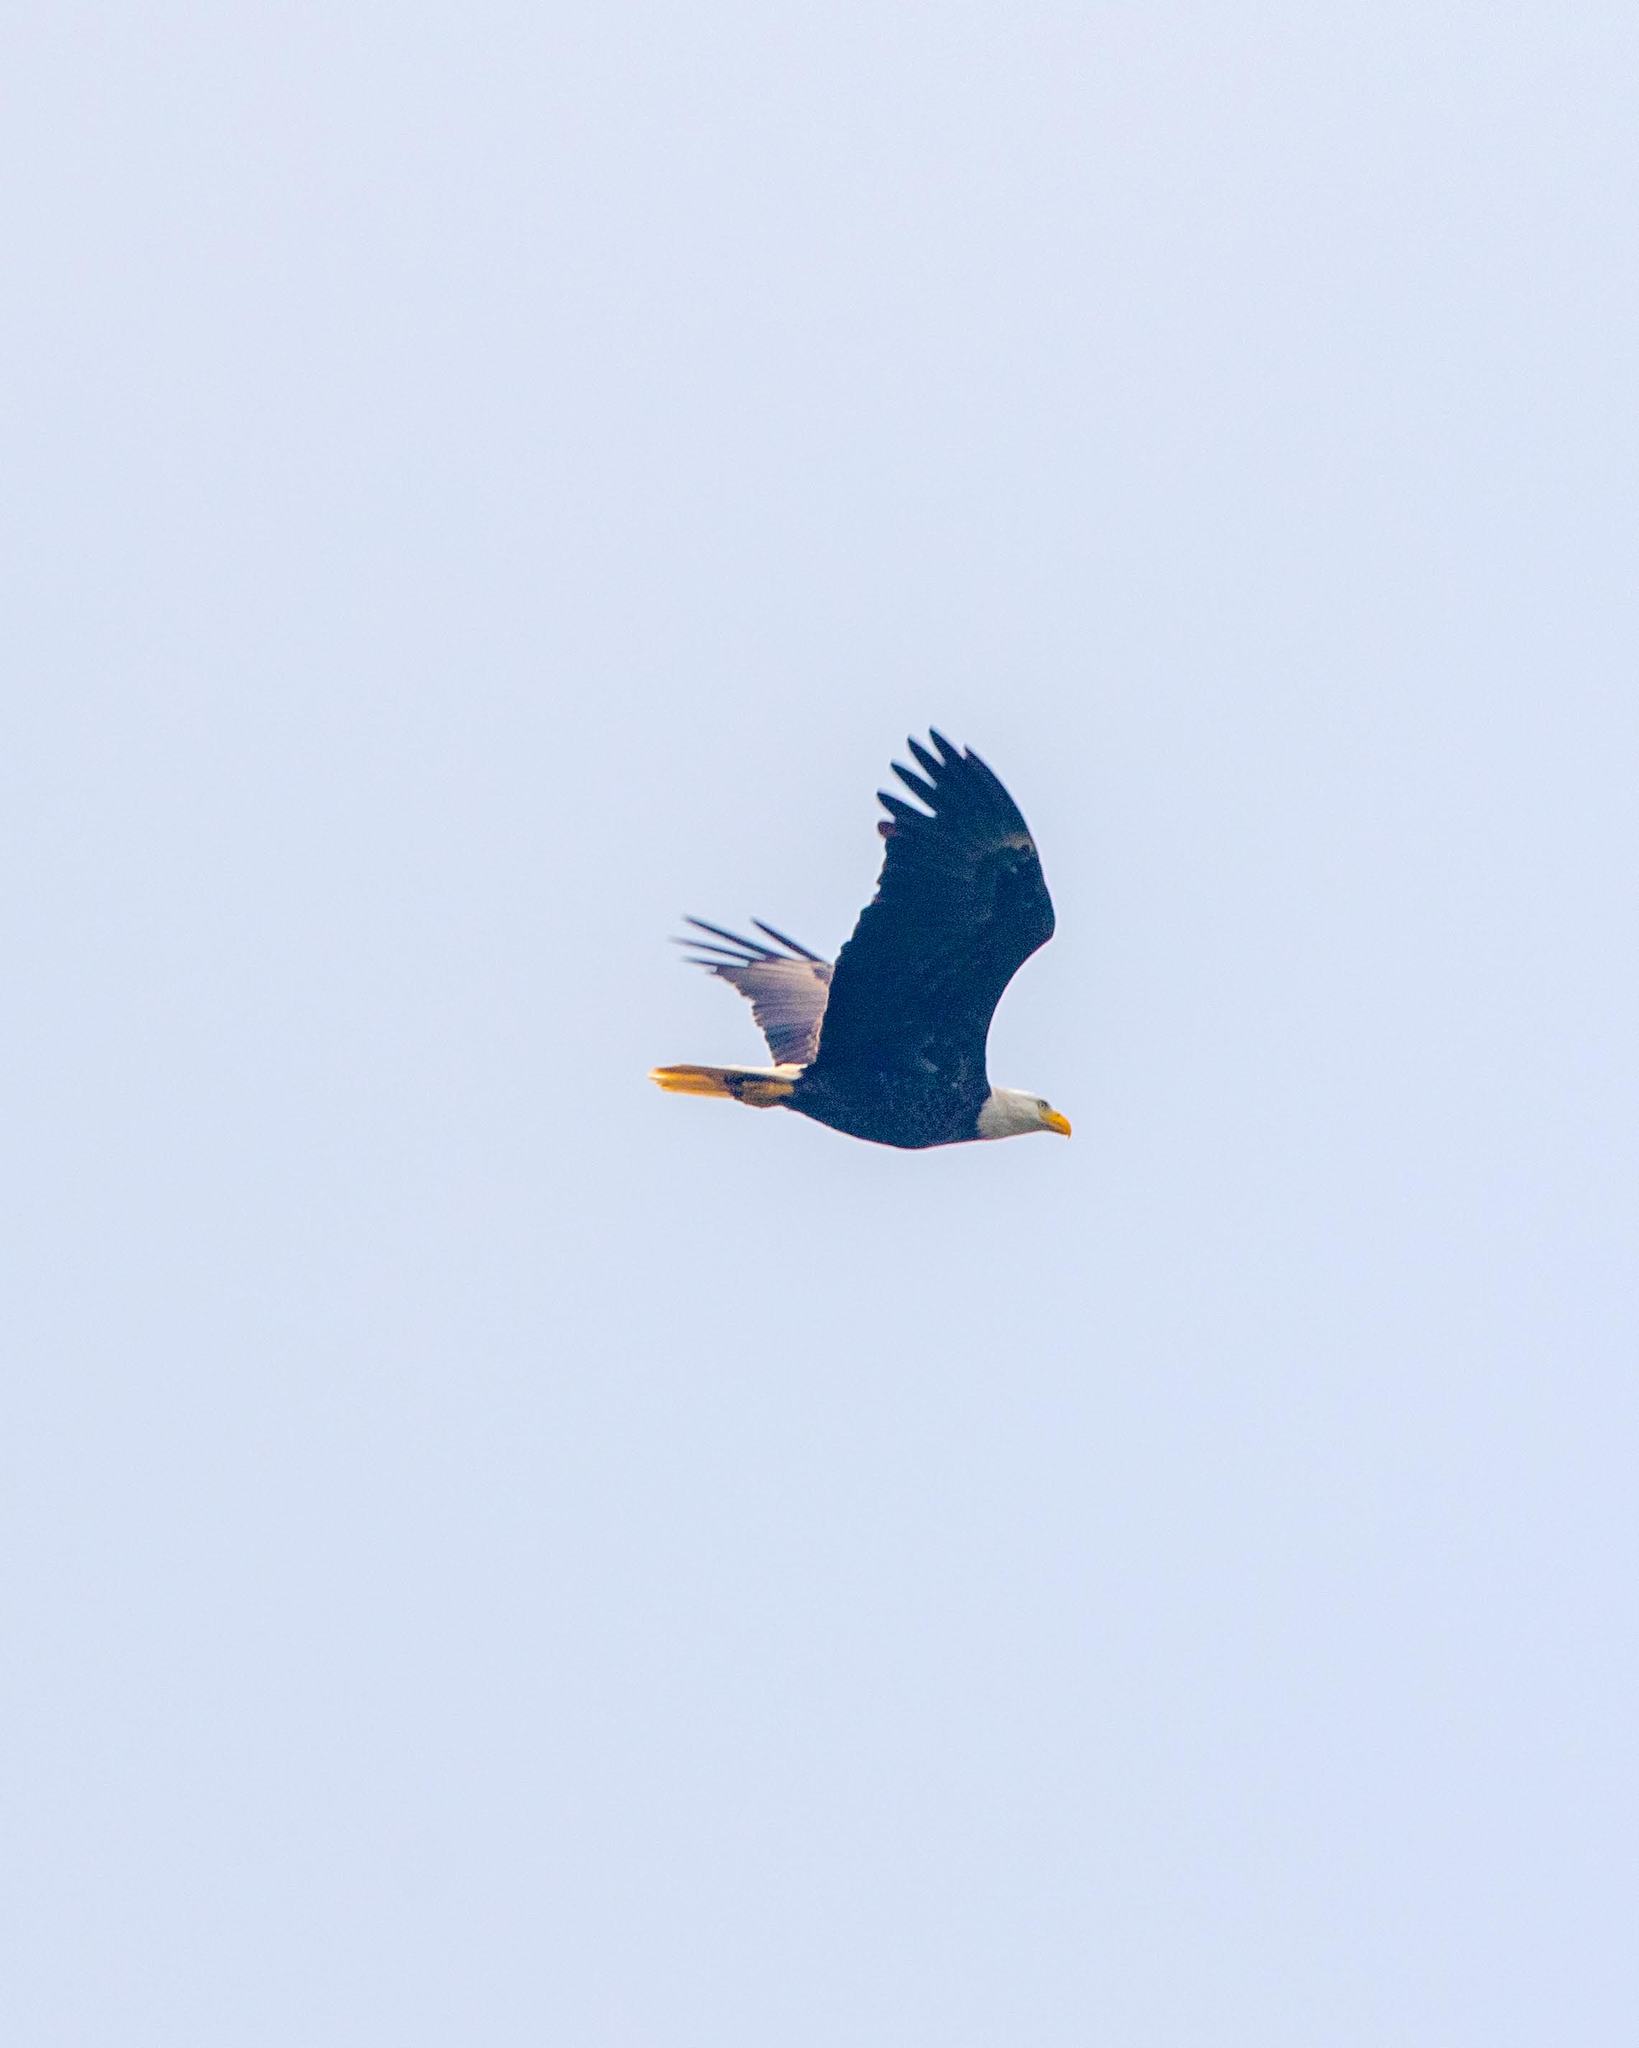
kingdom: Animalia
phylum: Chordata
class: Aves
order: Accipitriformes
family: Accipitridae
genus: Haliaeetus
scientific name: Haliaeetus leucocephalus
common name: Bald eagle
